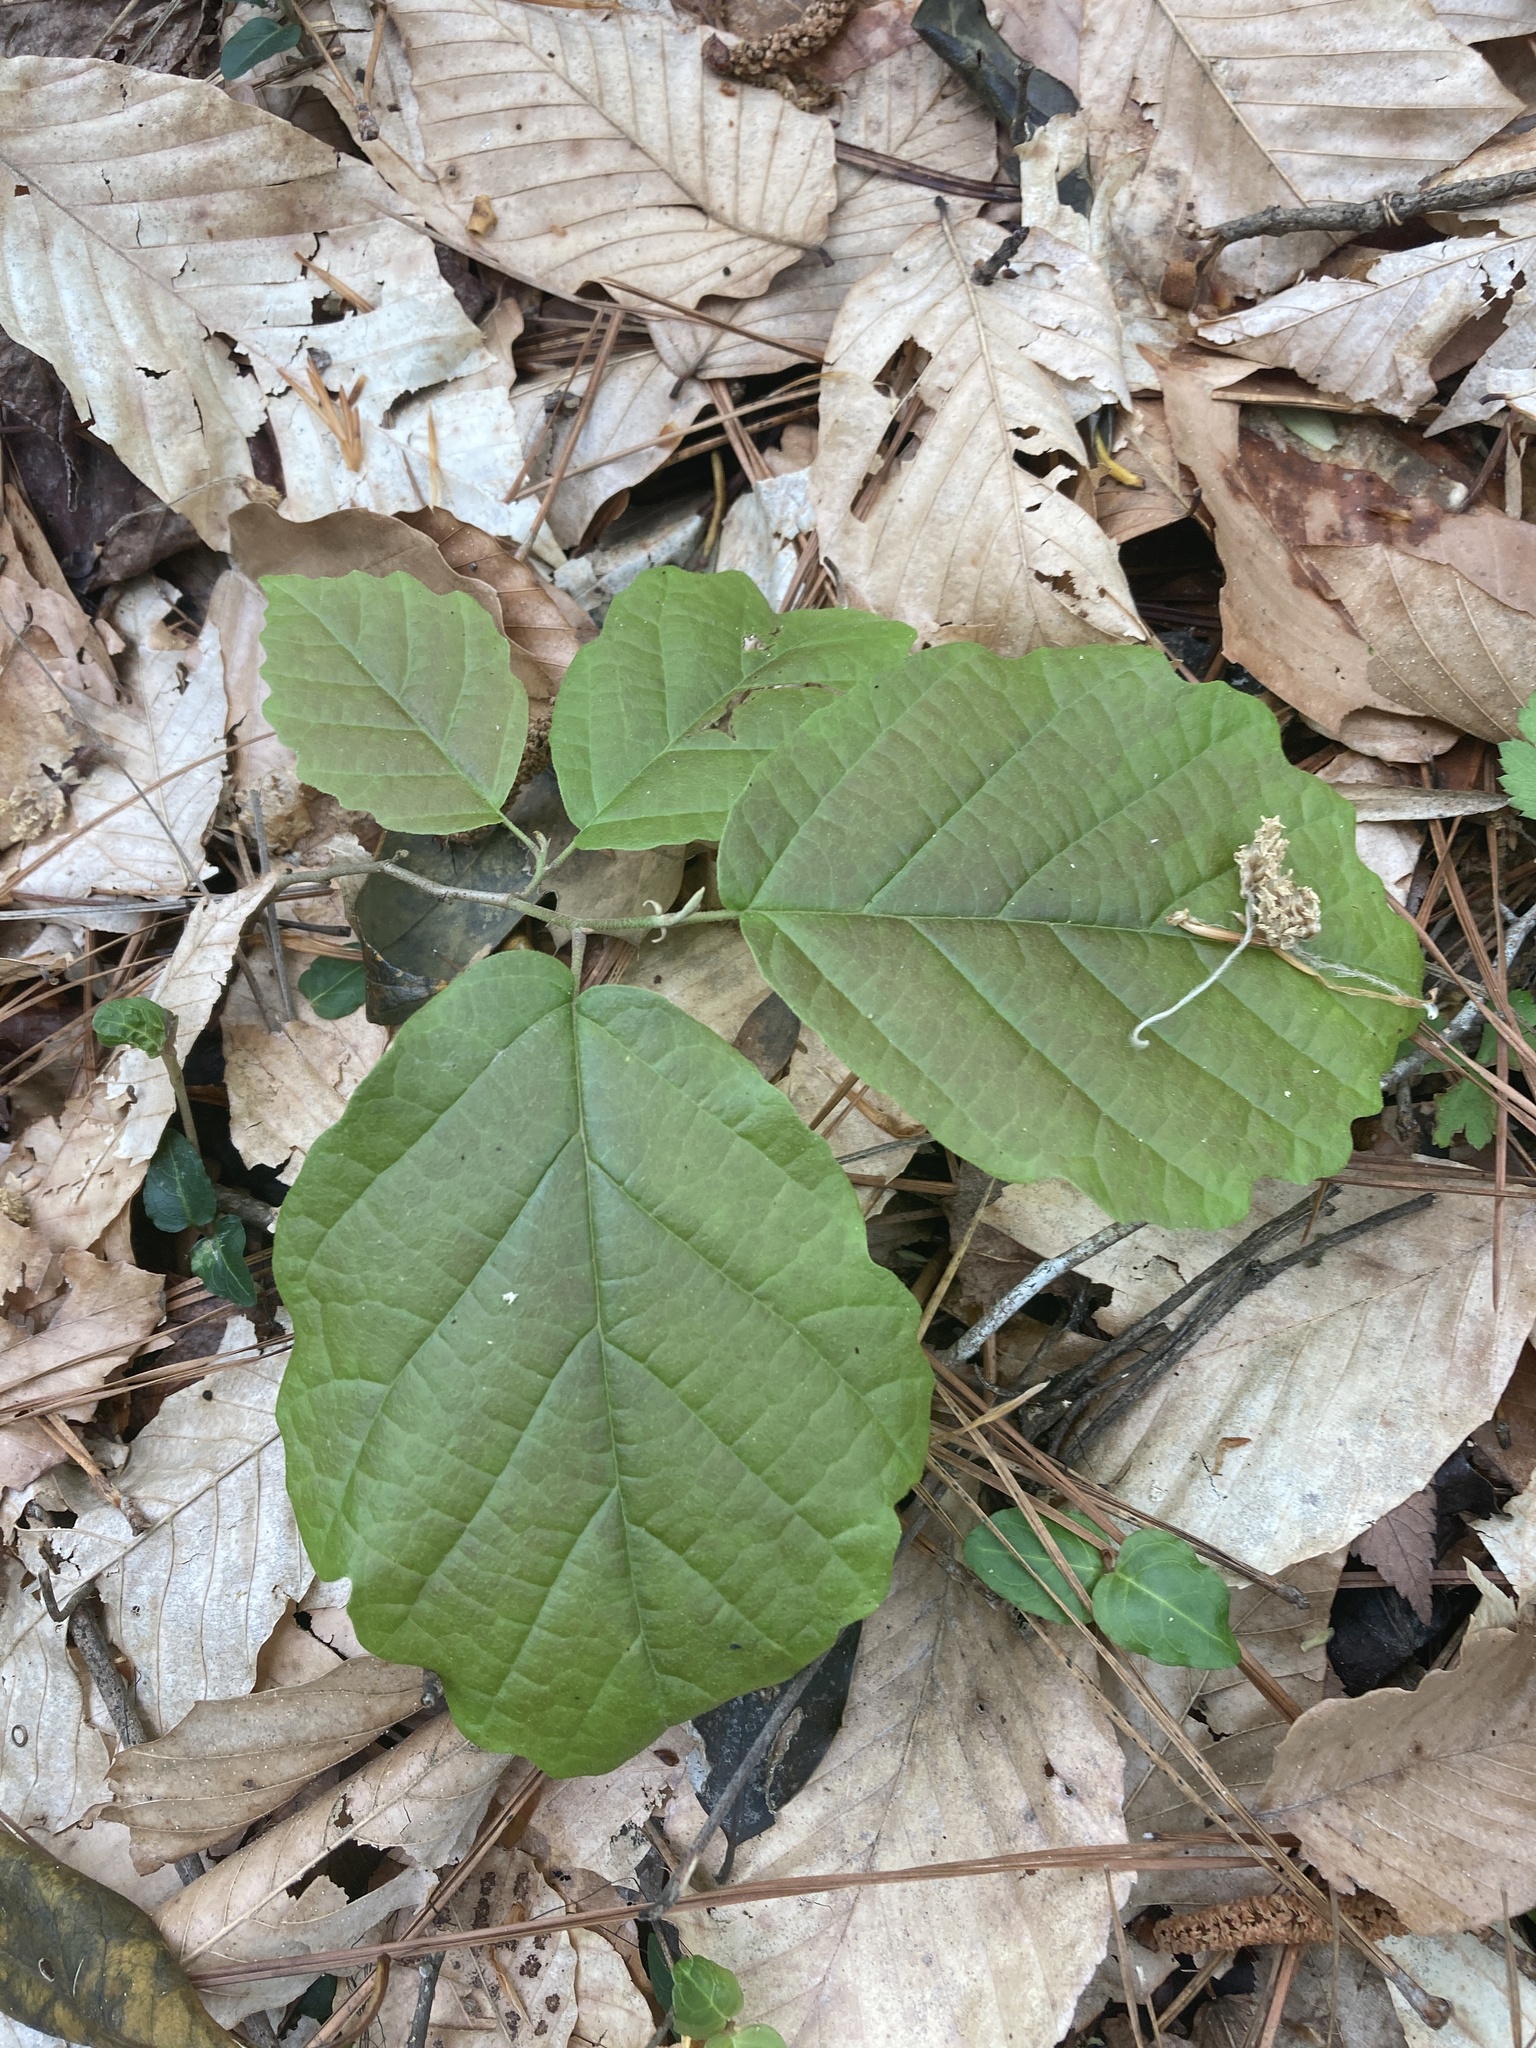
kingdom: Plantae
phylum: Tracheophyta
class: Magnoliopsida
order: Saxifragales
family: Hamamelidaceae
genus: Hamamelis
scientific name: Hamamelis virginiana
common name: Witch-hazel
